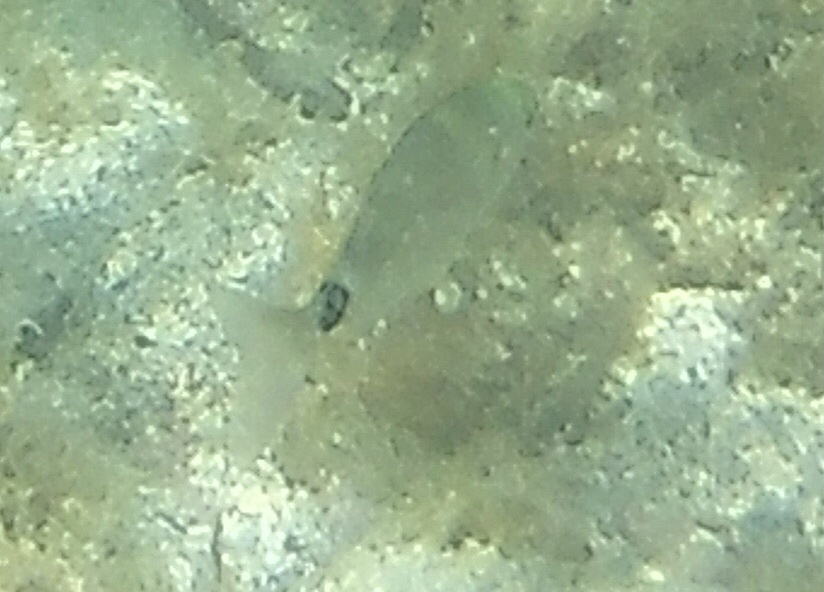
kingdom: Animalia
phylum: Chordata
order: Perciformes
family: Sparidae
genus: Oblada
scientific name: Oblada melanura
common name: Saddled seabream
